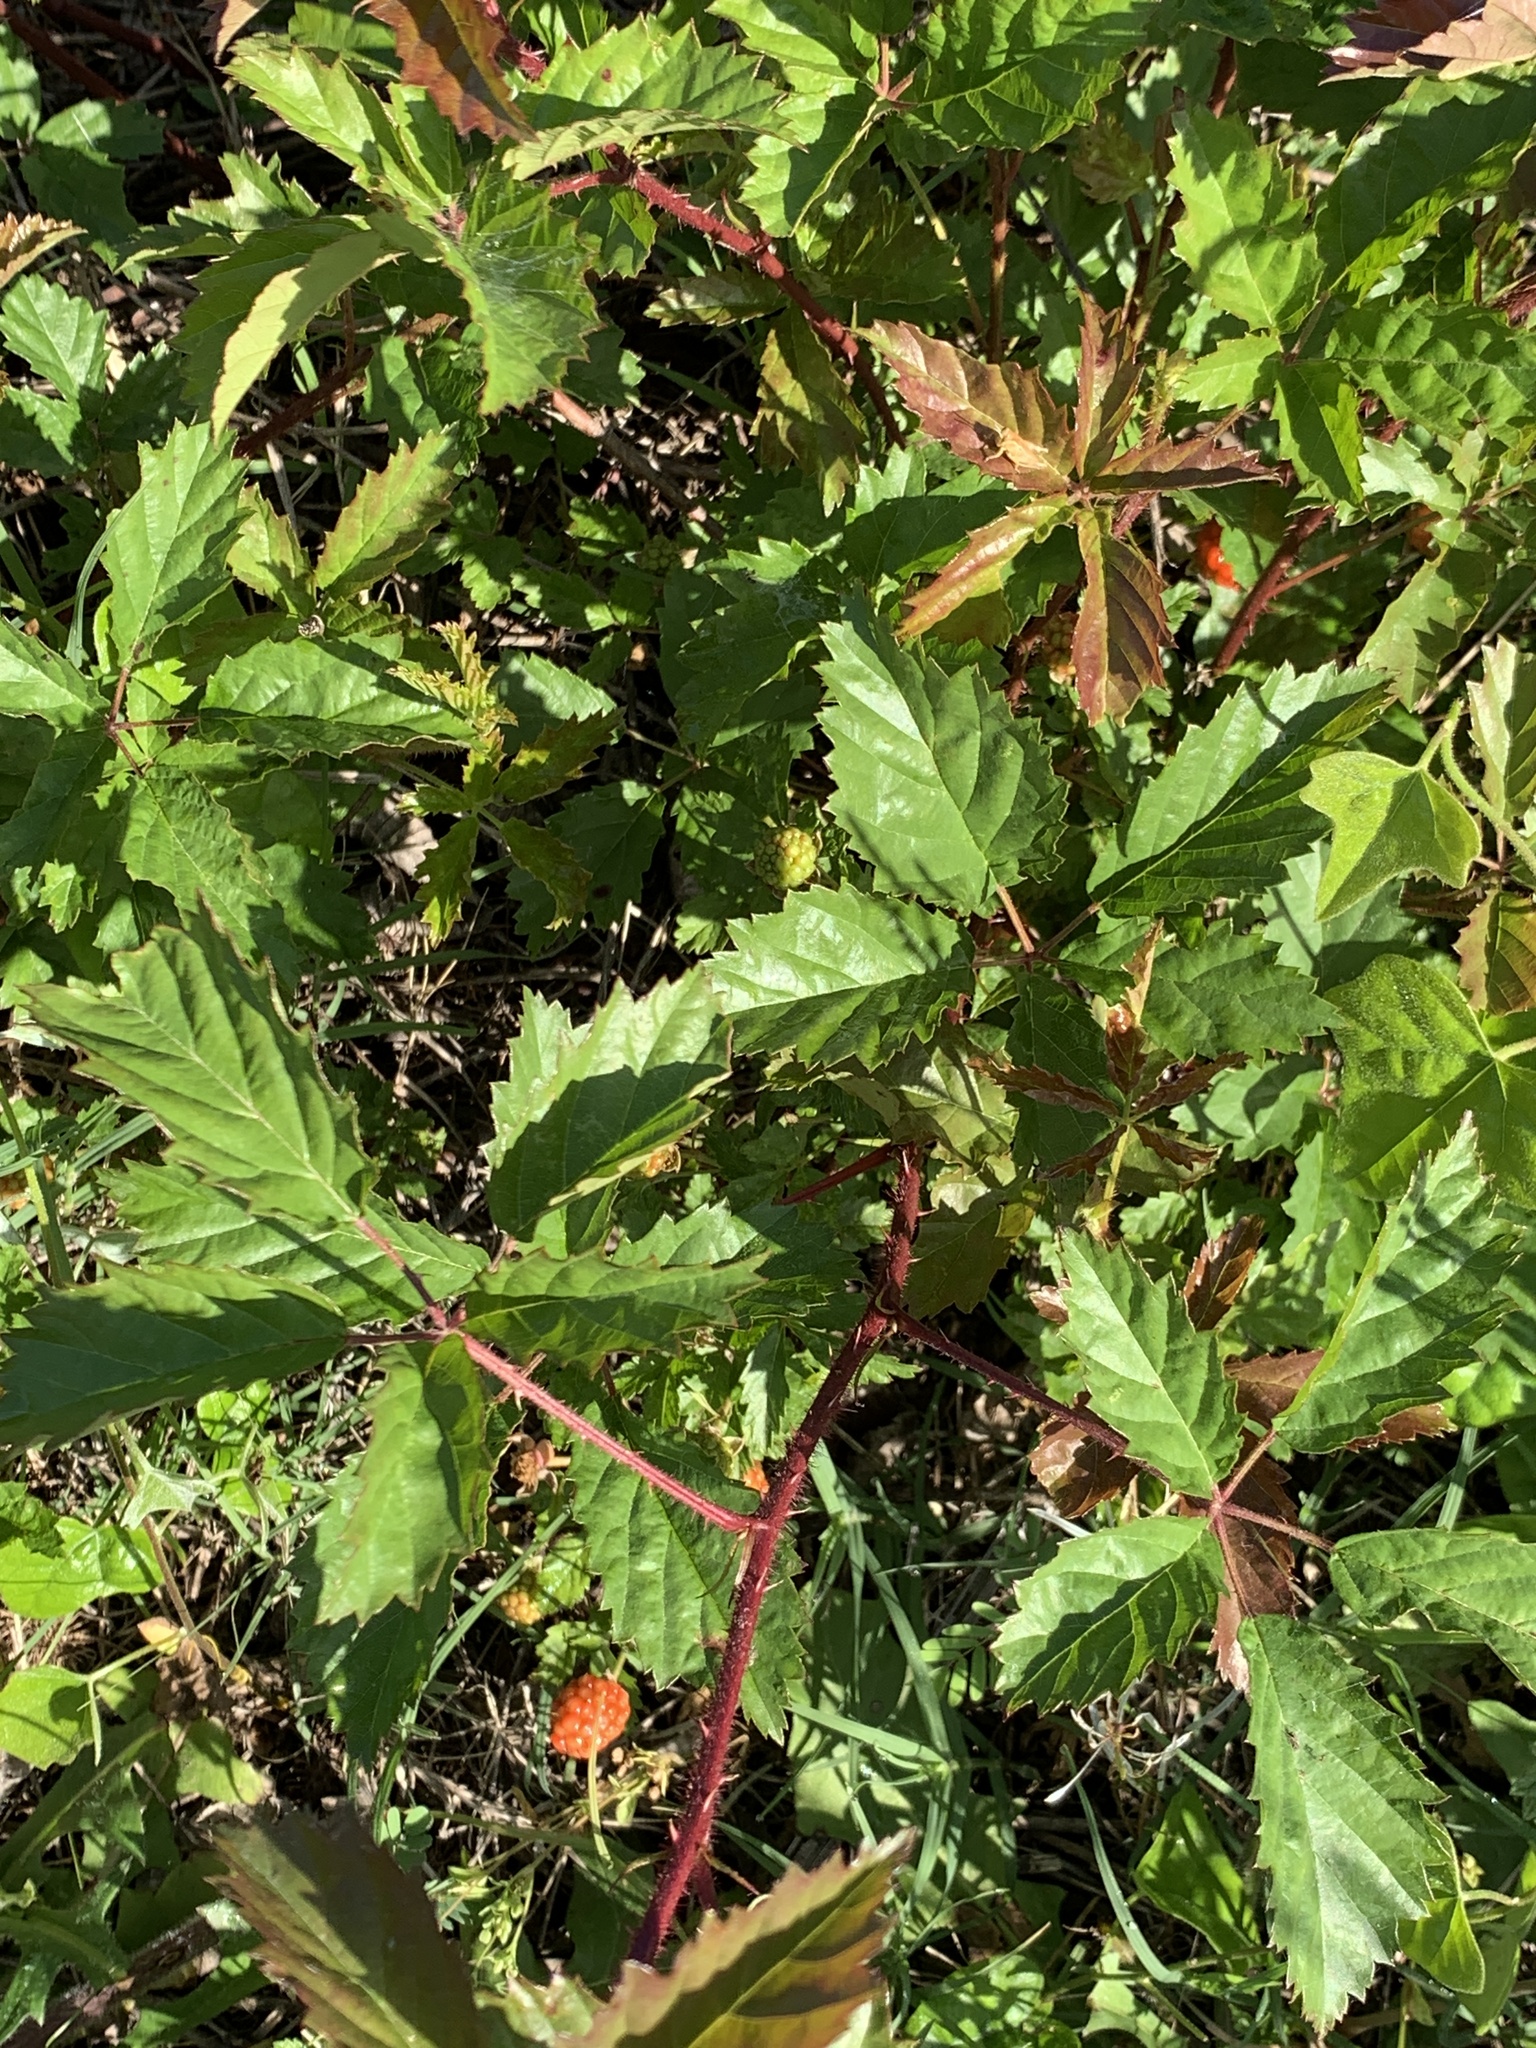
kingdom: Plantae
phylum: Tracheophyta
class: Magnoliopsida
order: Rosales
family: Rosaceae
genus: Rubus
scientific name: Rubus trivialis
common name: Southern dewberry
